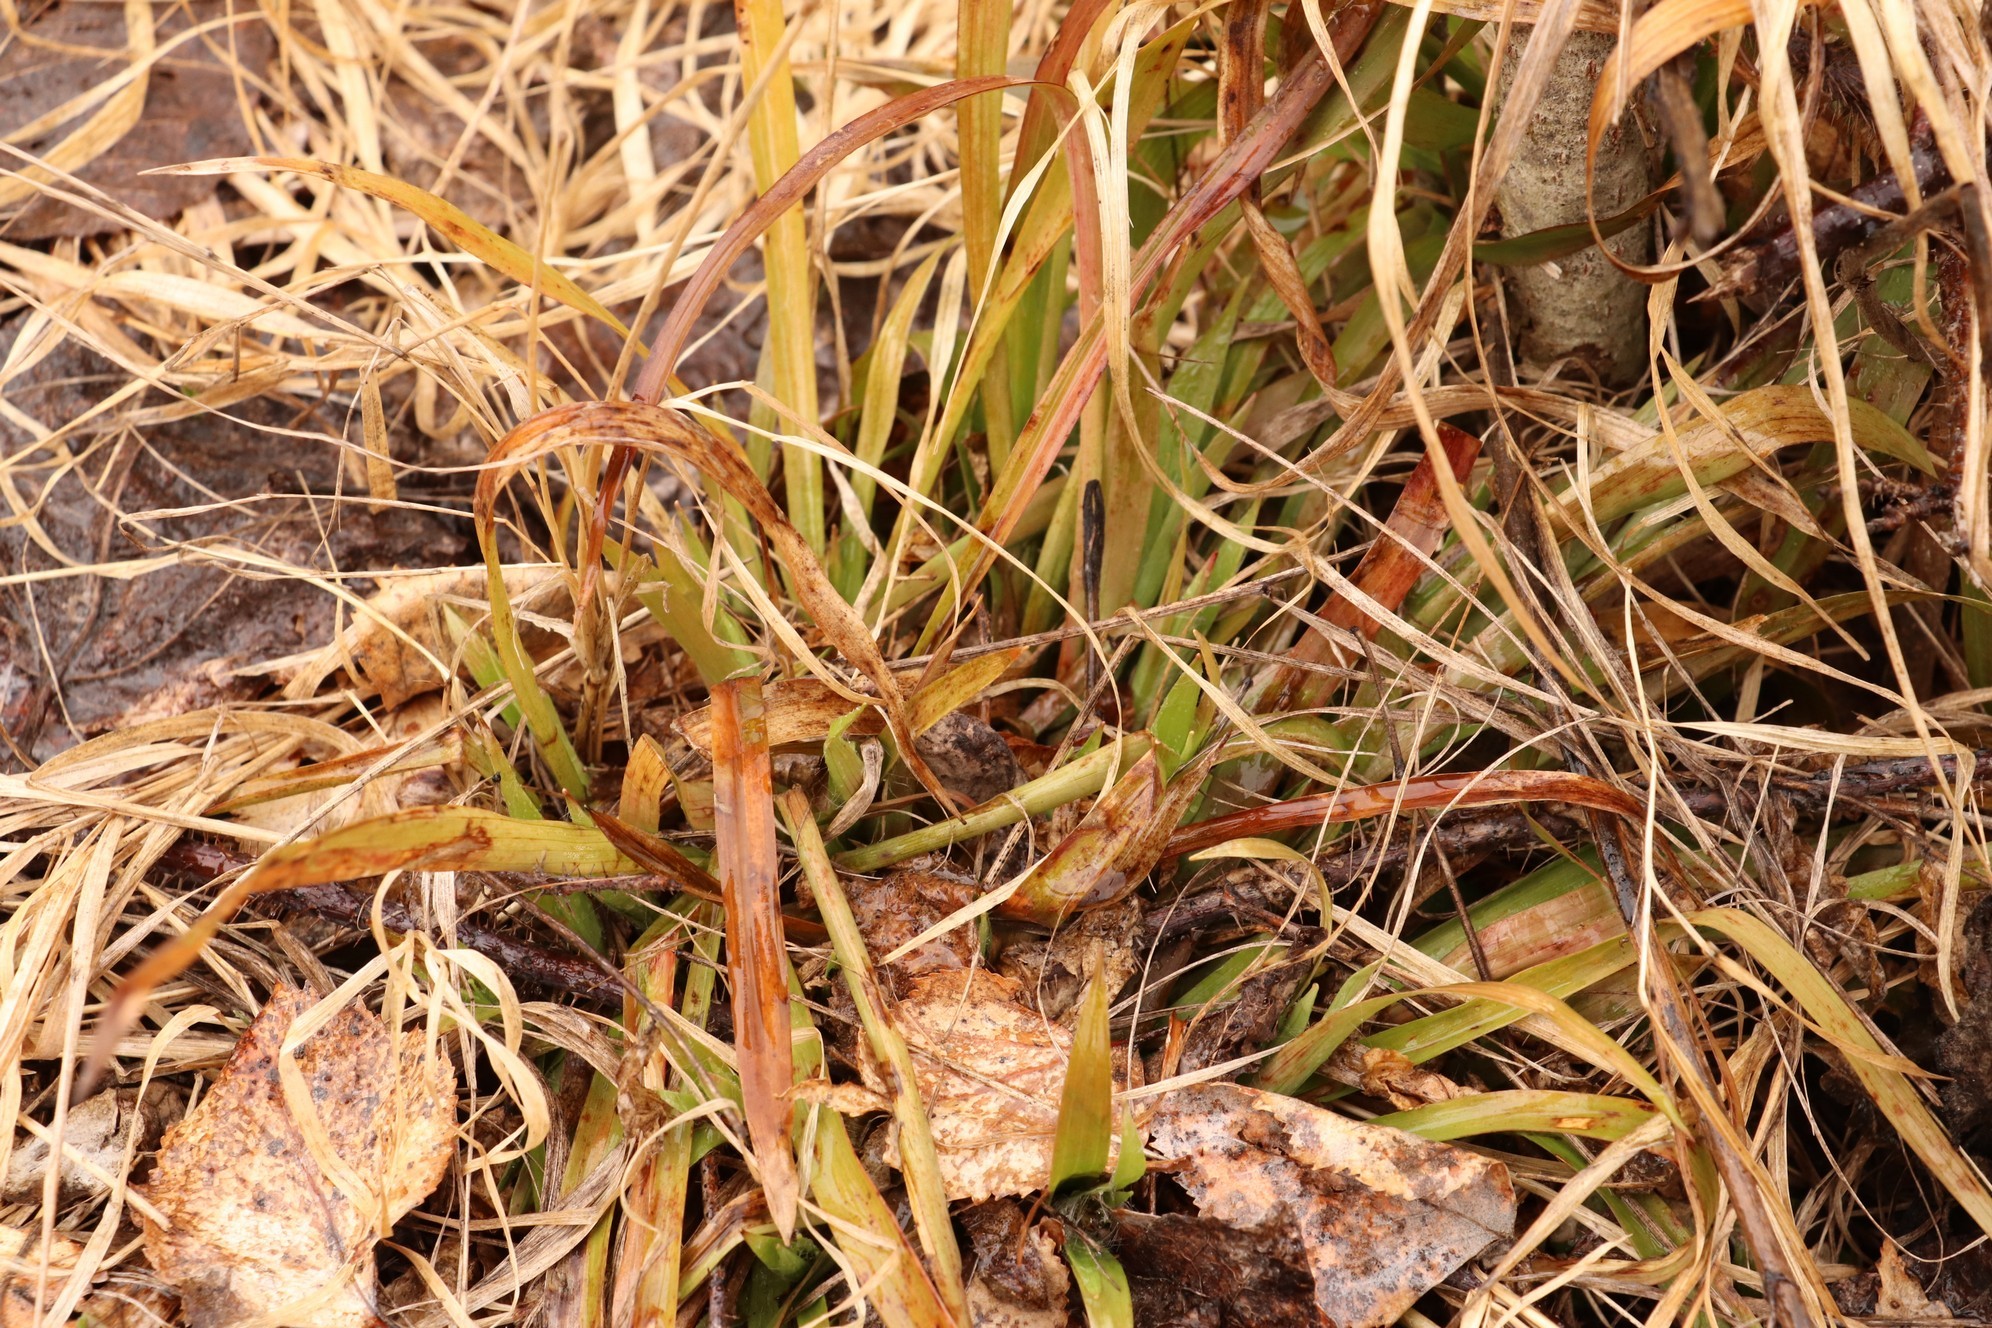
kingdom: Plantae
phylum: Tracheophyta
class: Liliopsida
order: Poales
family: Juncaceae
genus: Luzula
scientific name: Luzula pilosa
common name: Hairy wood-rush
